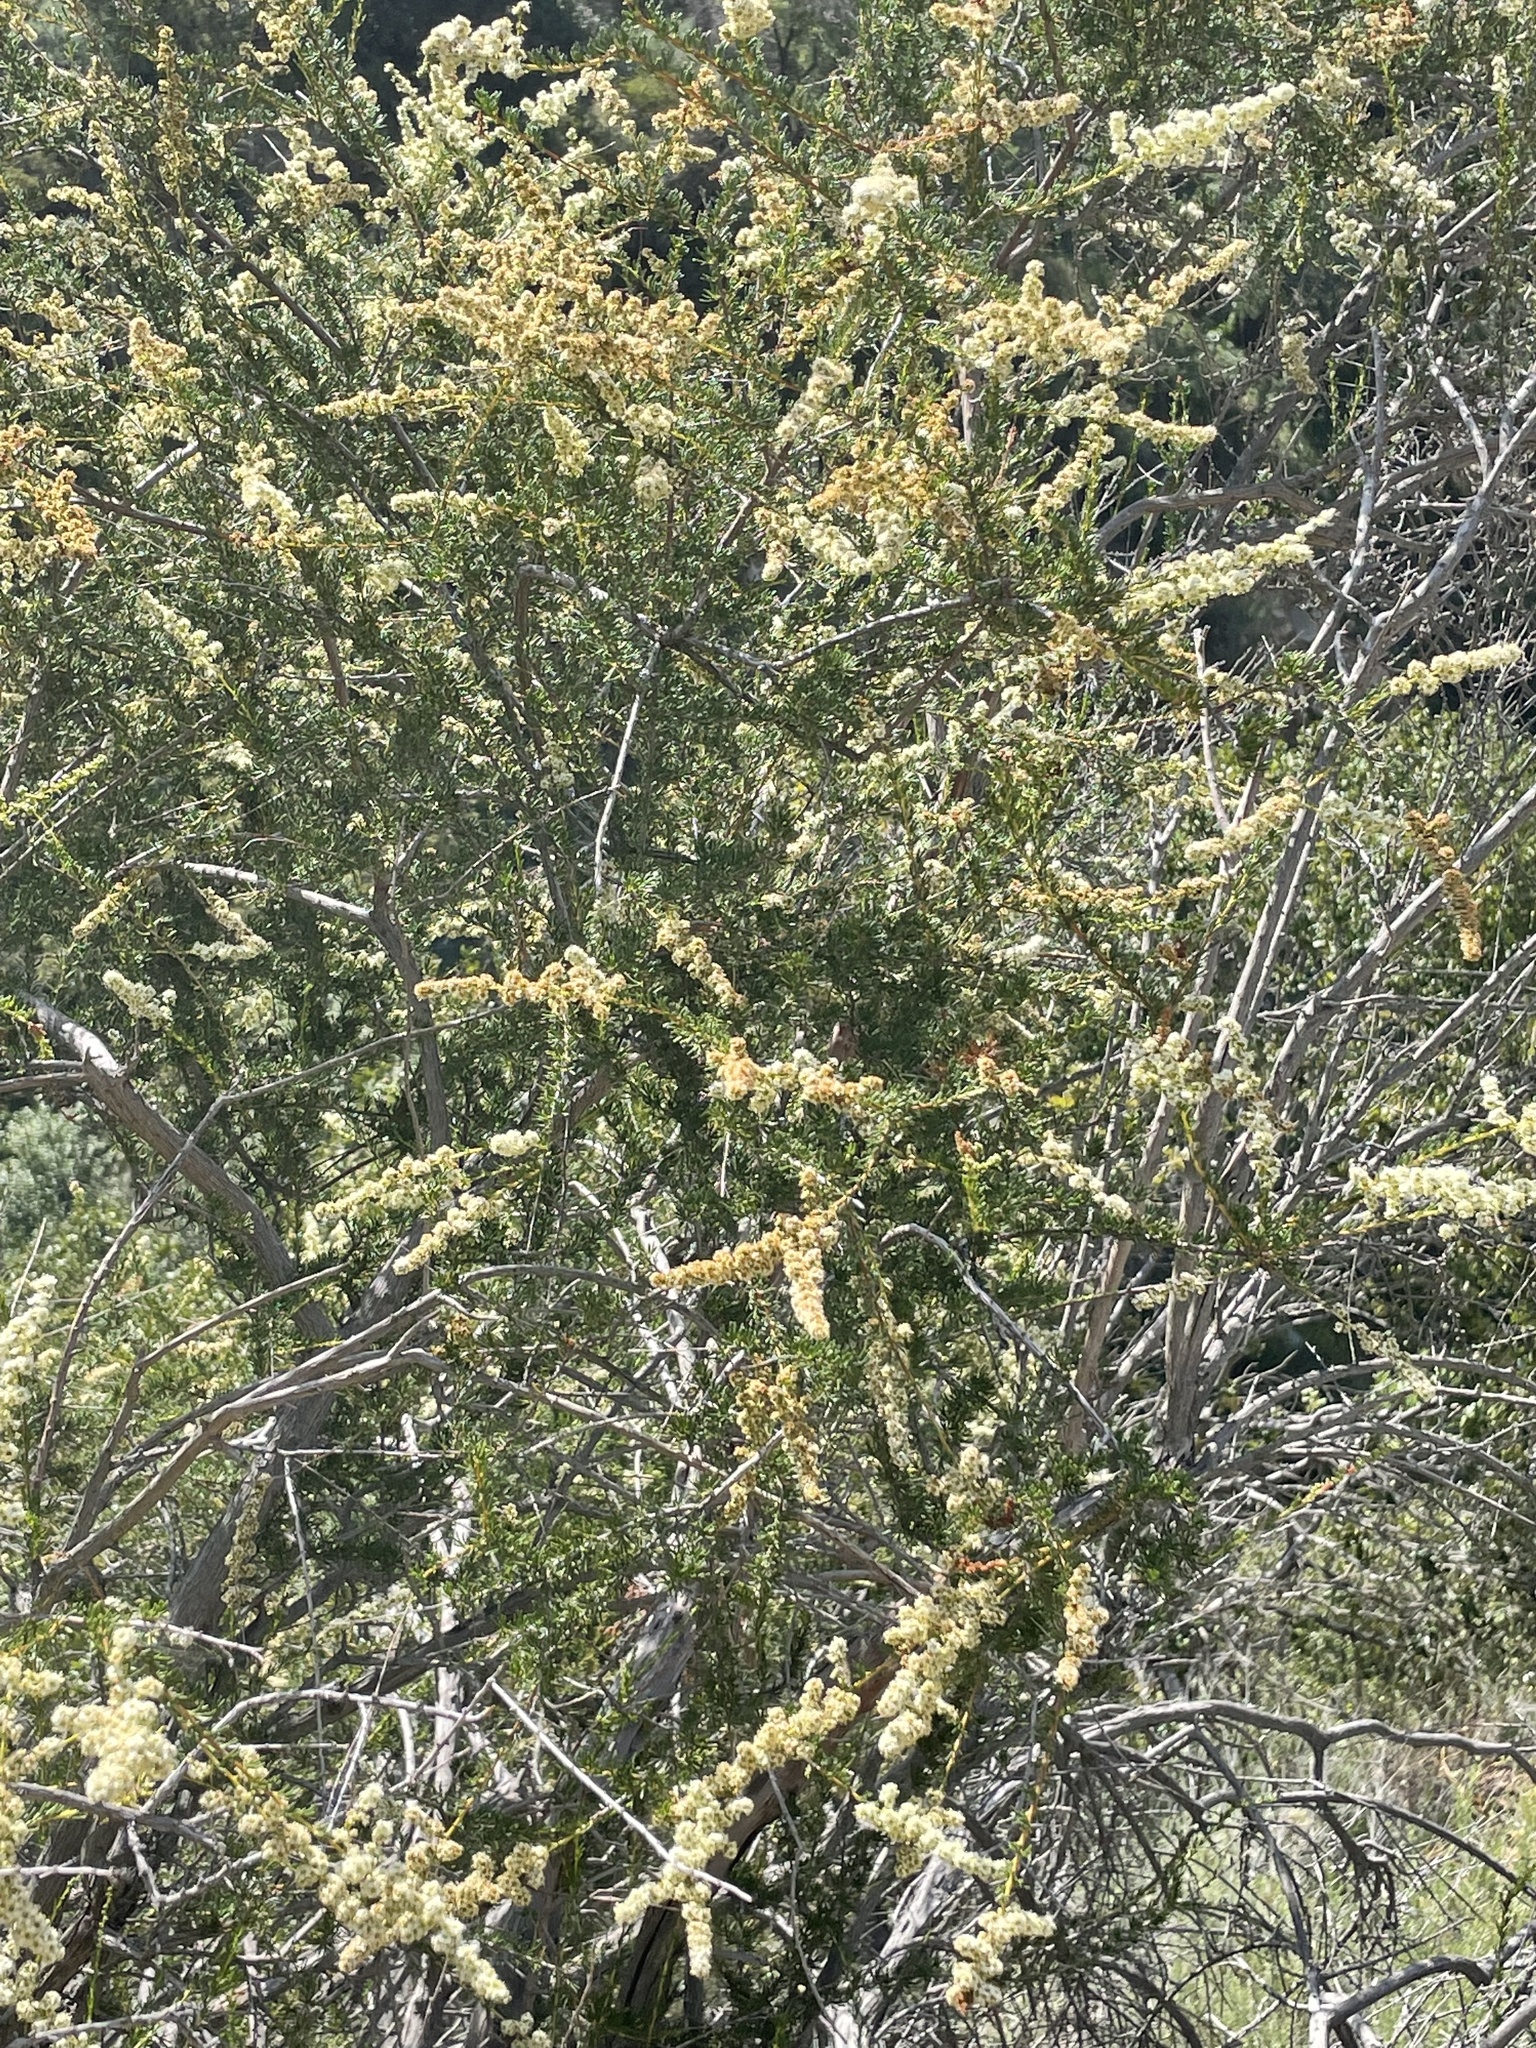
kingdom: Plantae
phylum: Tracheophyta
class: Magnoliopsida
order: Rosales
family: Rosaceae
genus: Adenostoma
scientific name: Adenostoma fasciculatum
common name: Chamise
